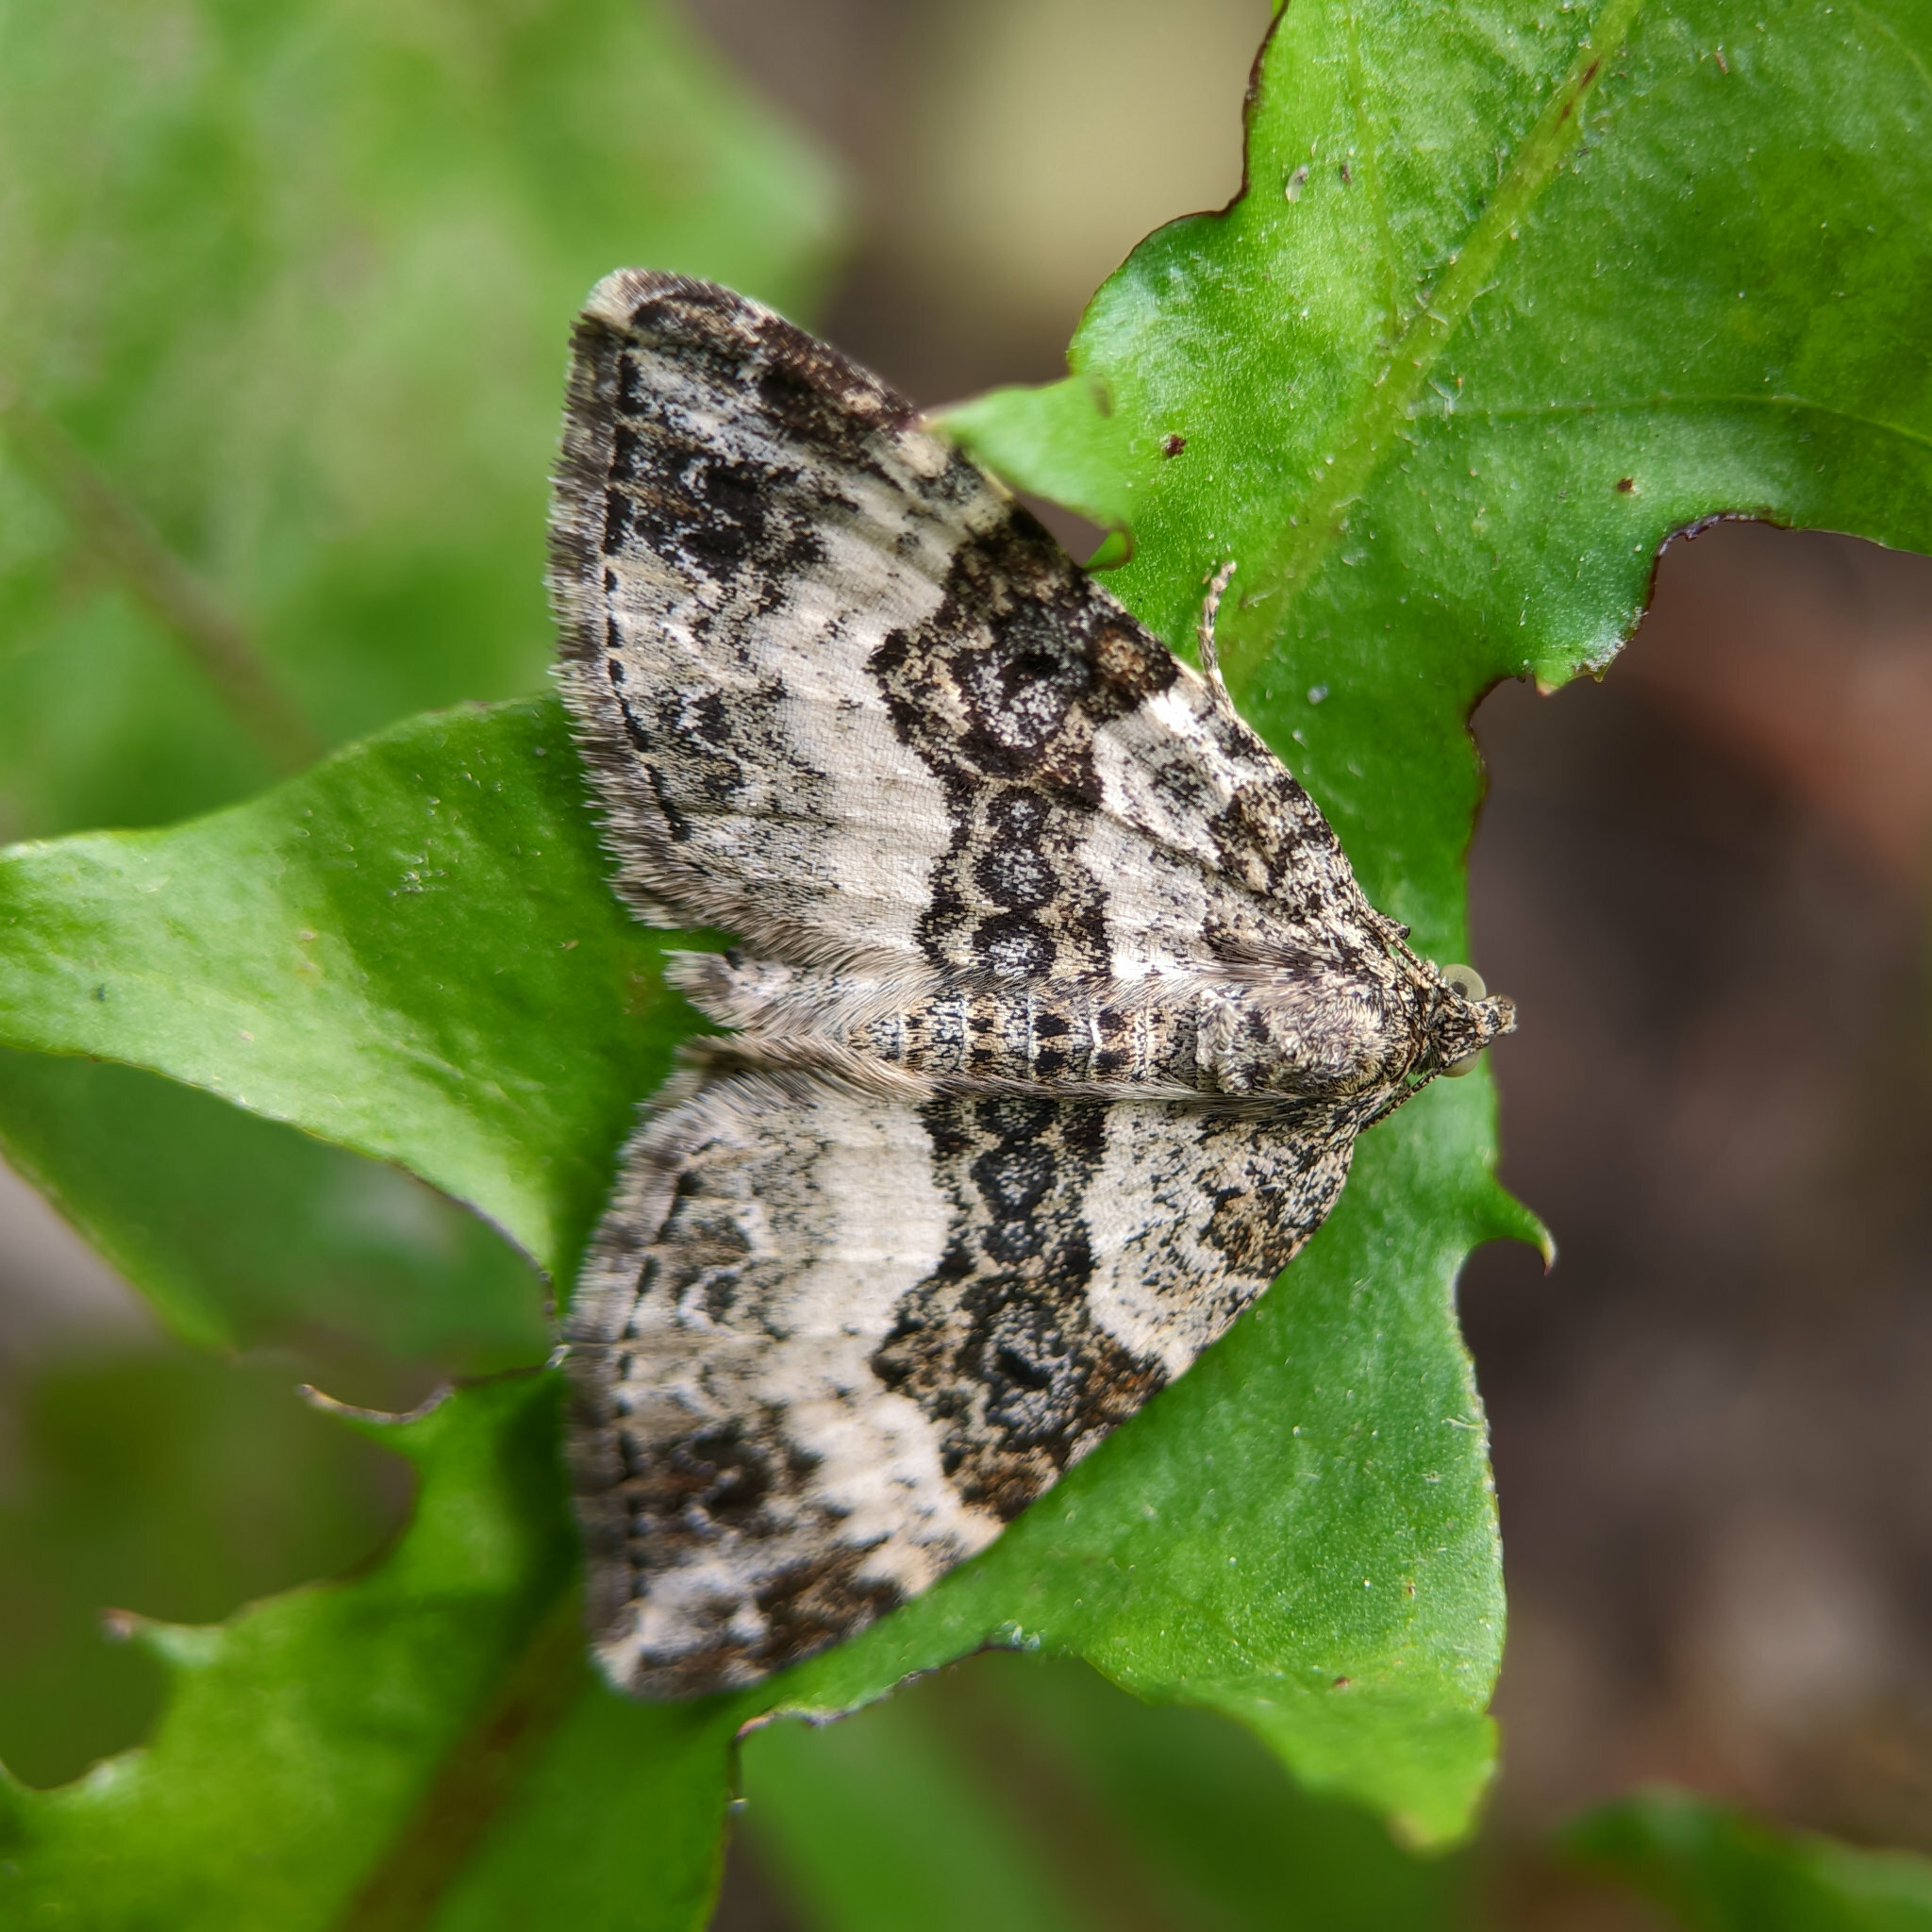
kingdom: Animalia
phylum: Arthropoda
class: Insecta
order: Lepidoptera
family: Geometridae
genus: Epirrhoe
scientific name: Epirrhoe alternata
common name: Common carpet
